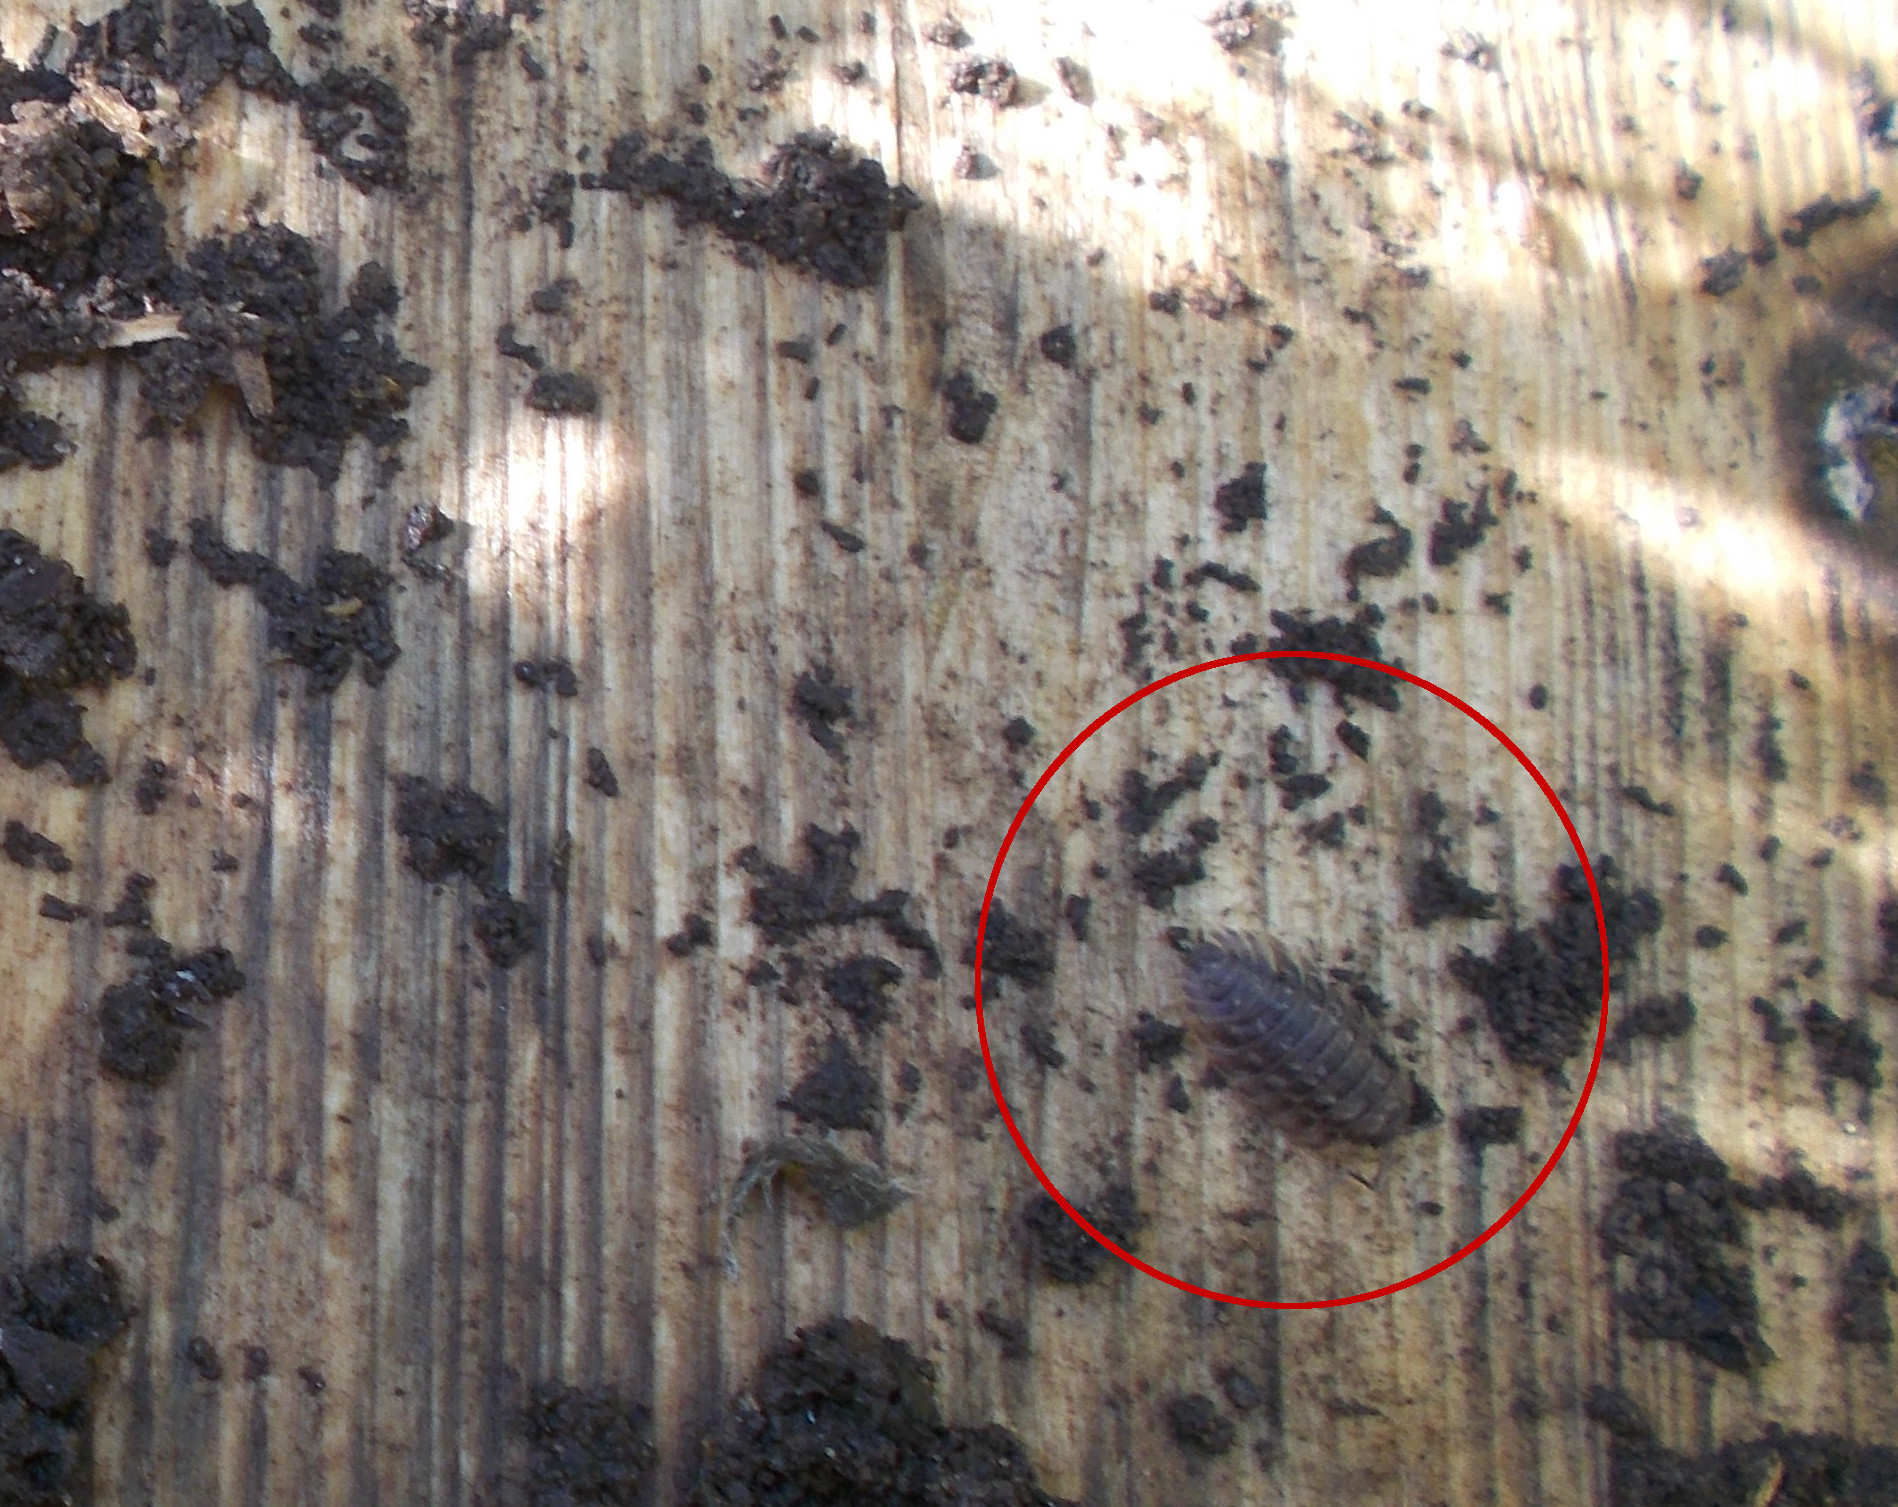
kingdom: Animalia
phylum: Arthropoda
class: Malacostraca
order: Isopoda
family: Oniscidae
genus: Oniscus
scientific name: Oniscus asellus
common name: Common shiny woodlouse
